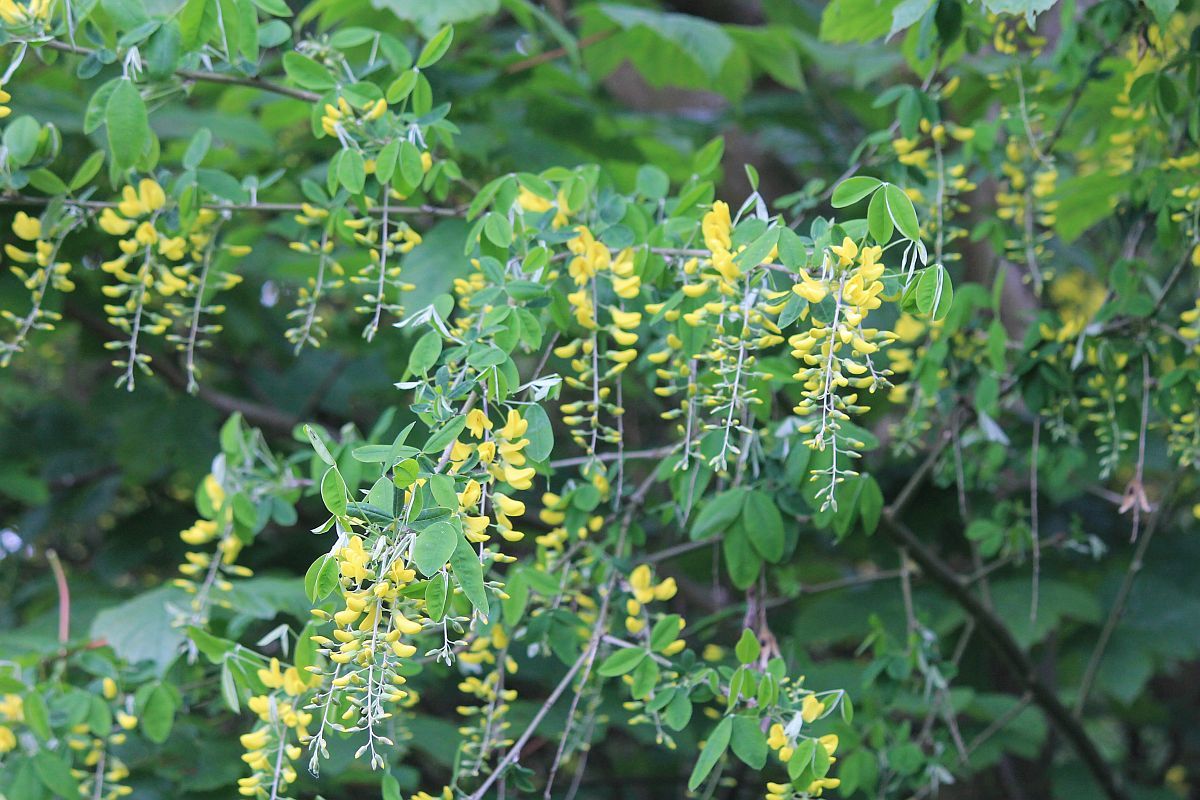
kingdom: Plantae
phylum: Tracheophyta
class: Magnoliopsida
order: Fabales
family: Fabaceae
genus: Laburnum
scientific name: Laburnum anagyroides
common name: Laburnum
